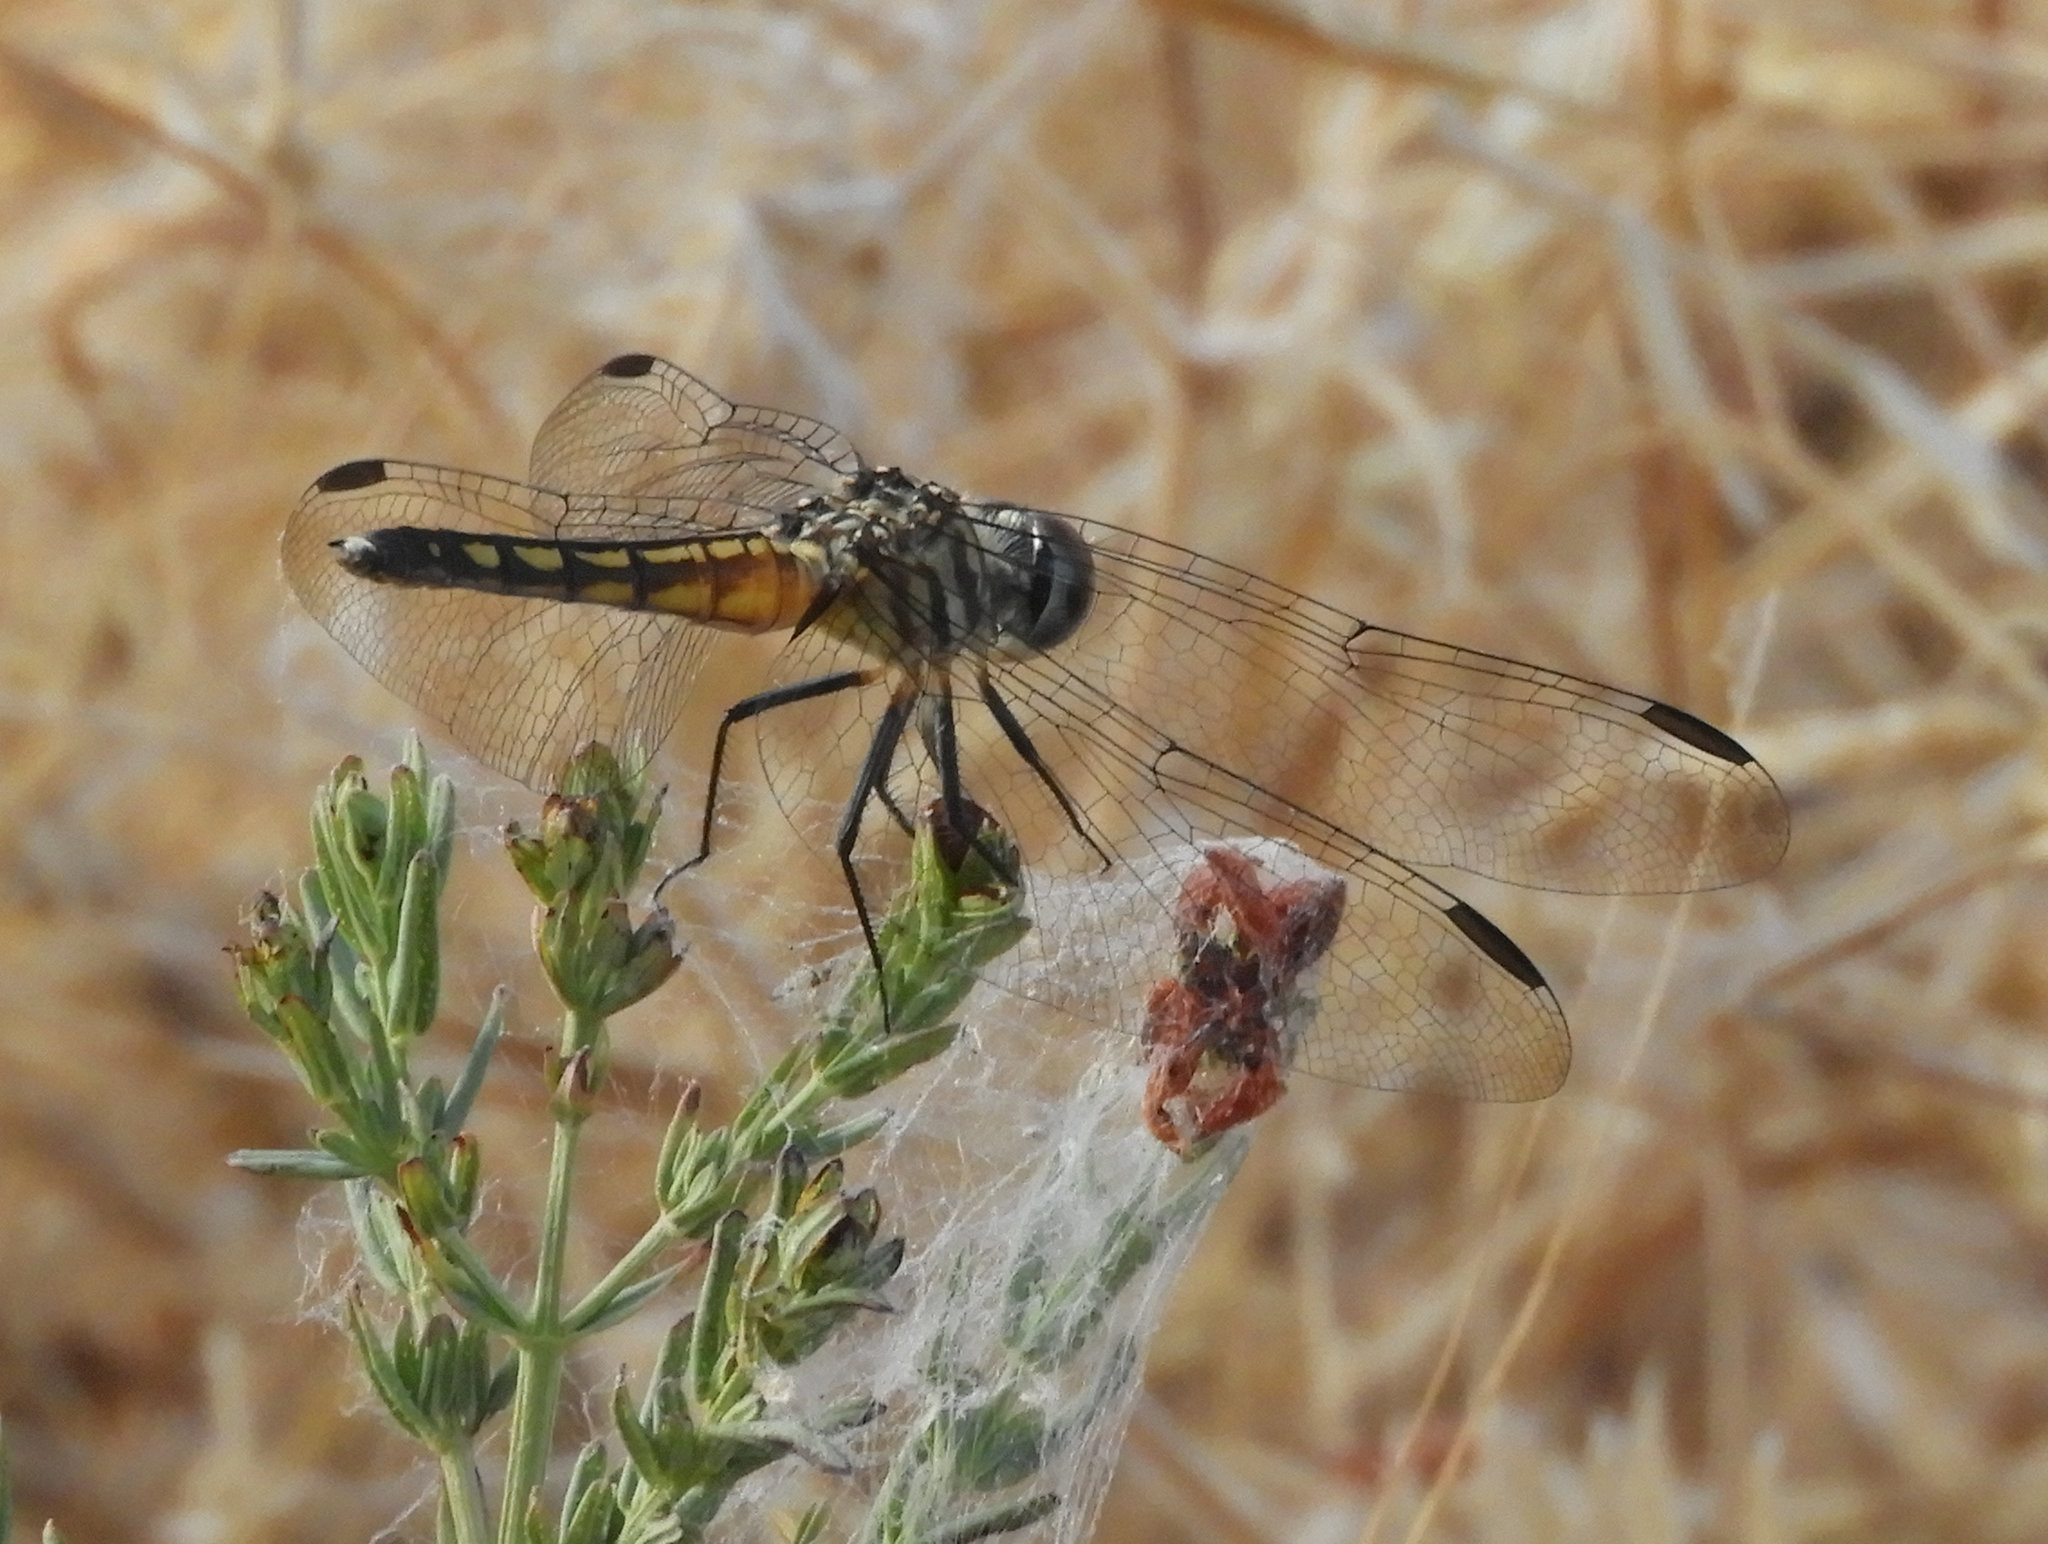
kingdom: Animalia
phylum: Arthropoda
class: Insecta
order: Odonata
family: Libellulidae
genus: Pachydiplax
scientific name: Pachydiplax longipennis
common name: Blue dasher
